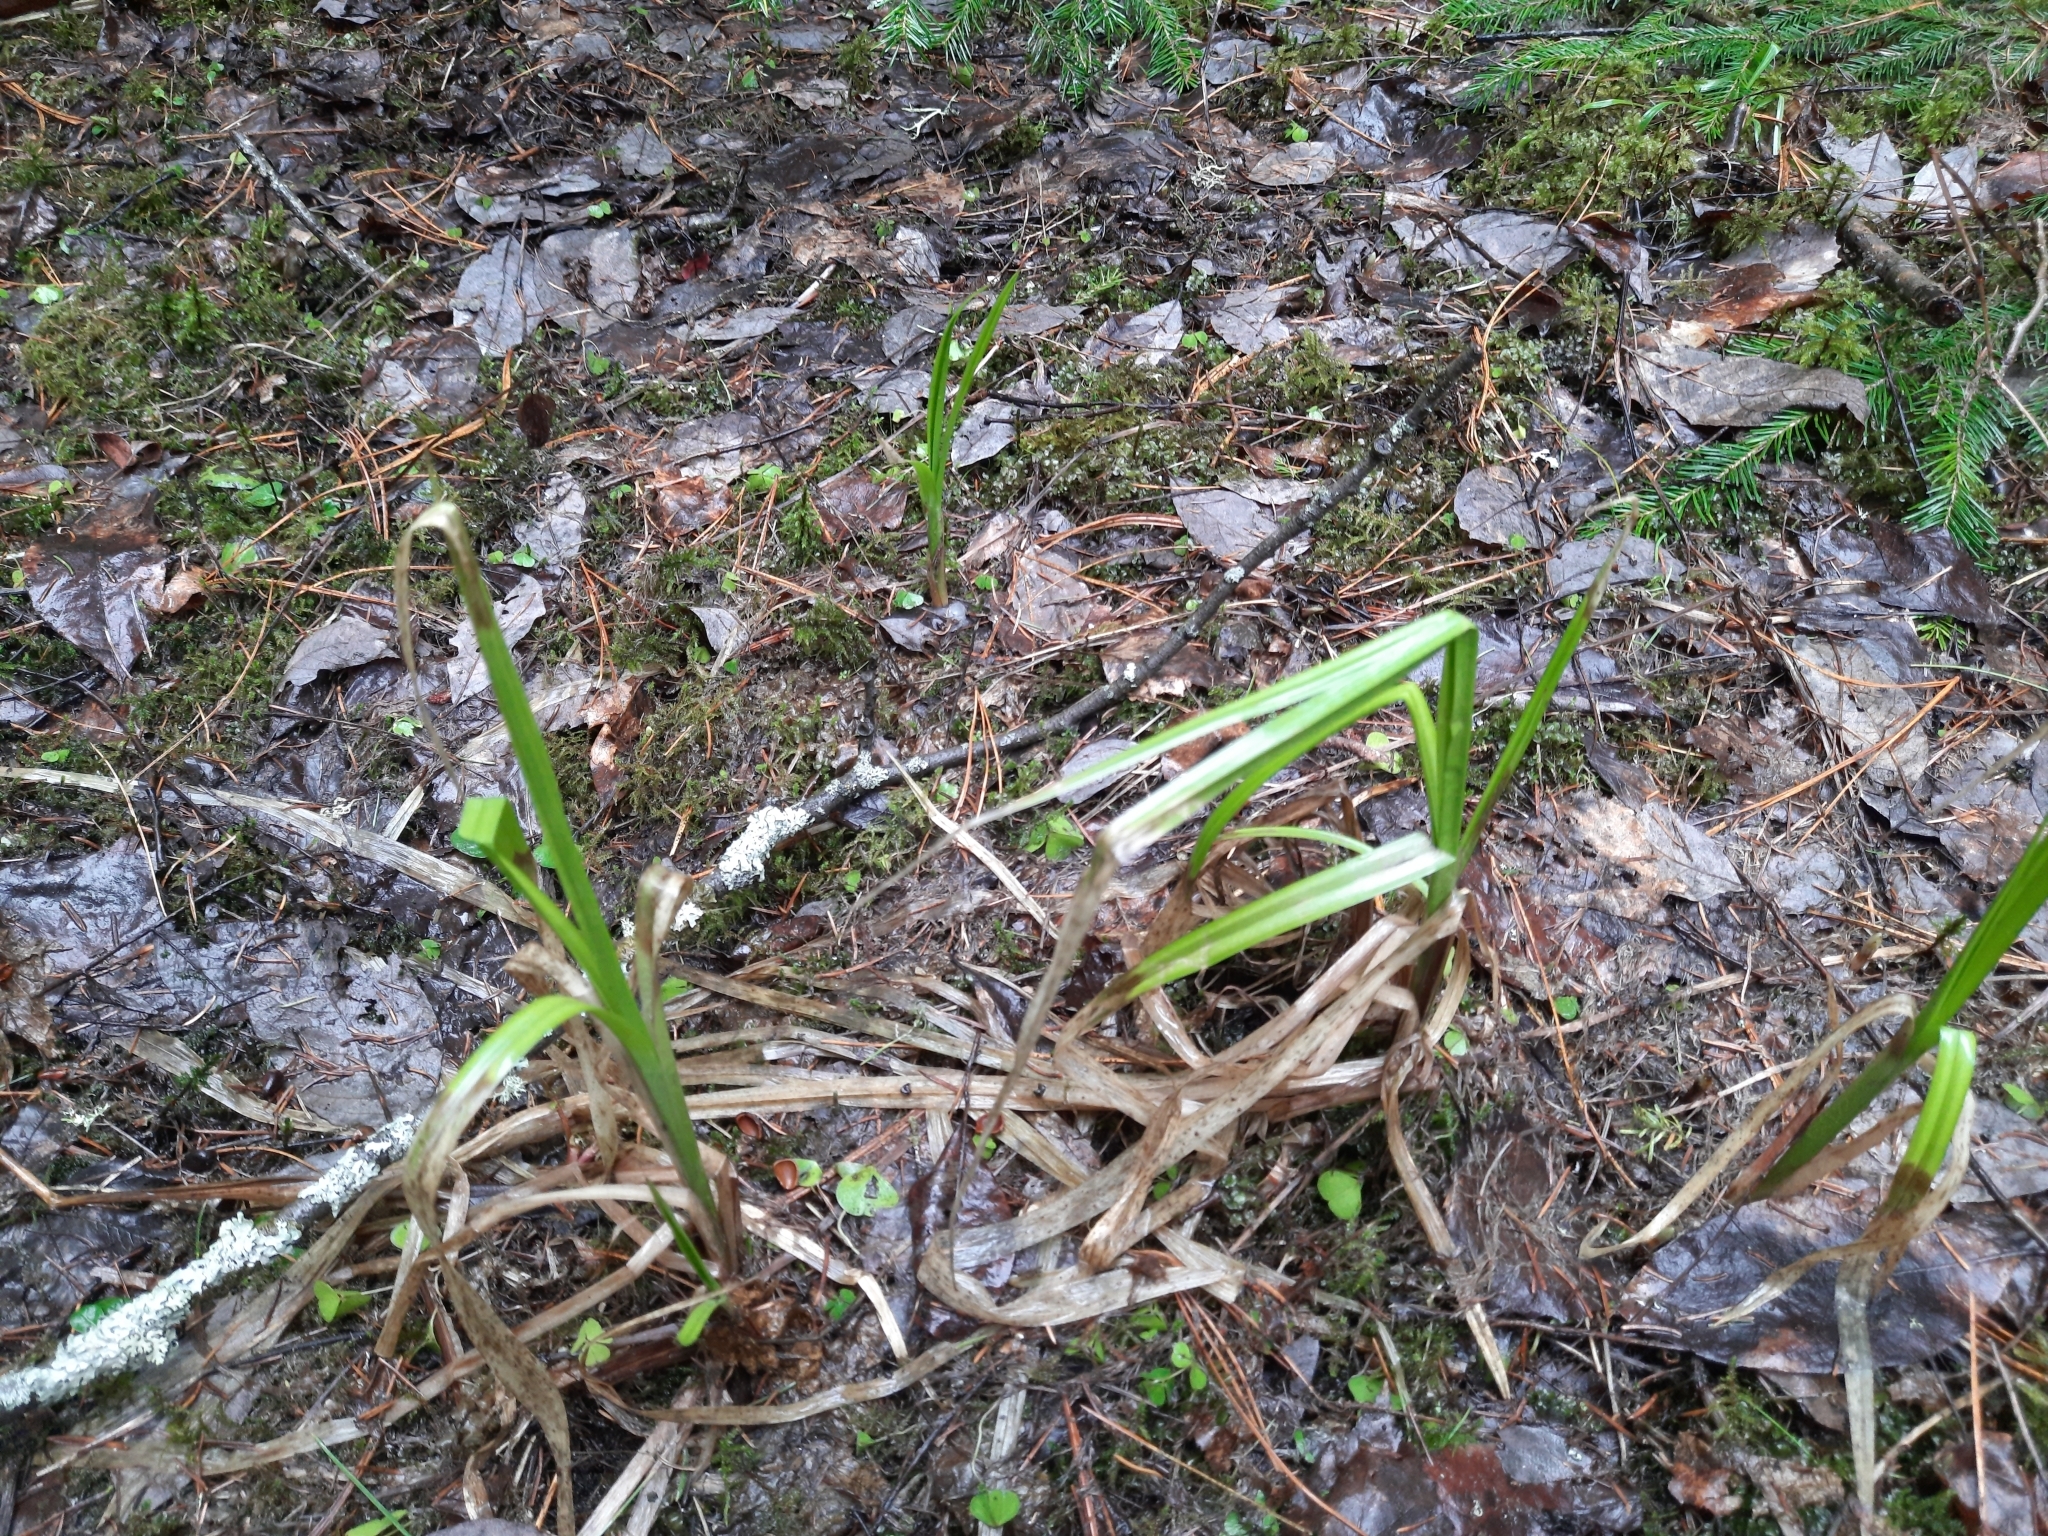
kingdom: Plantae
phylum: Tracheophyta
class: Liliopsida
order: Poales
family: Cyperaceae
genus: Scirpus
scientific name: Scirpus sylvaticus
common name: Wood club-rush
